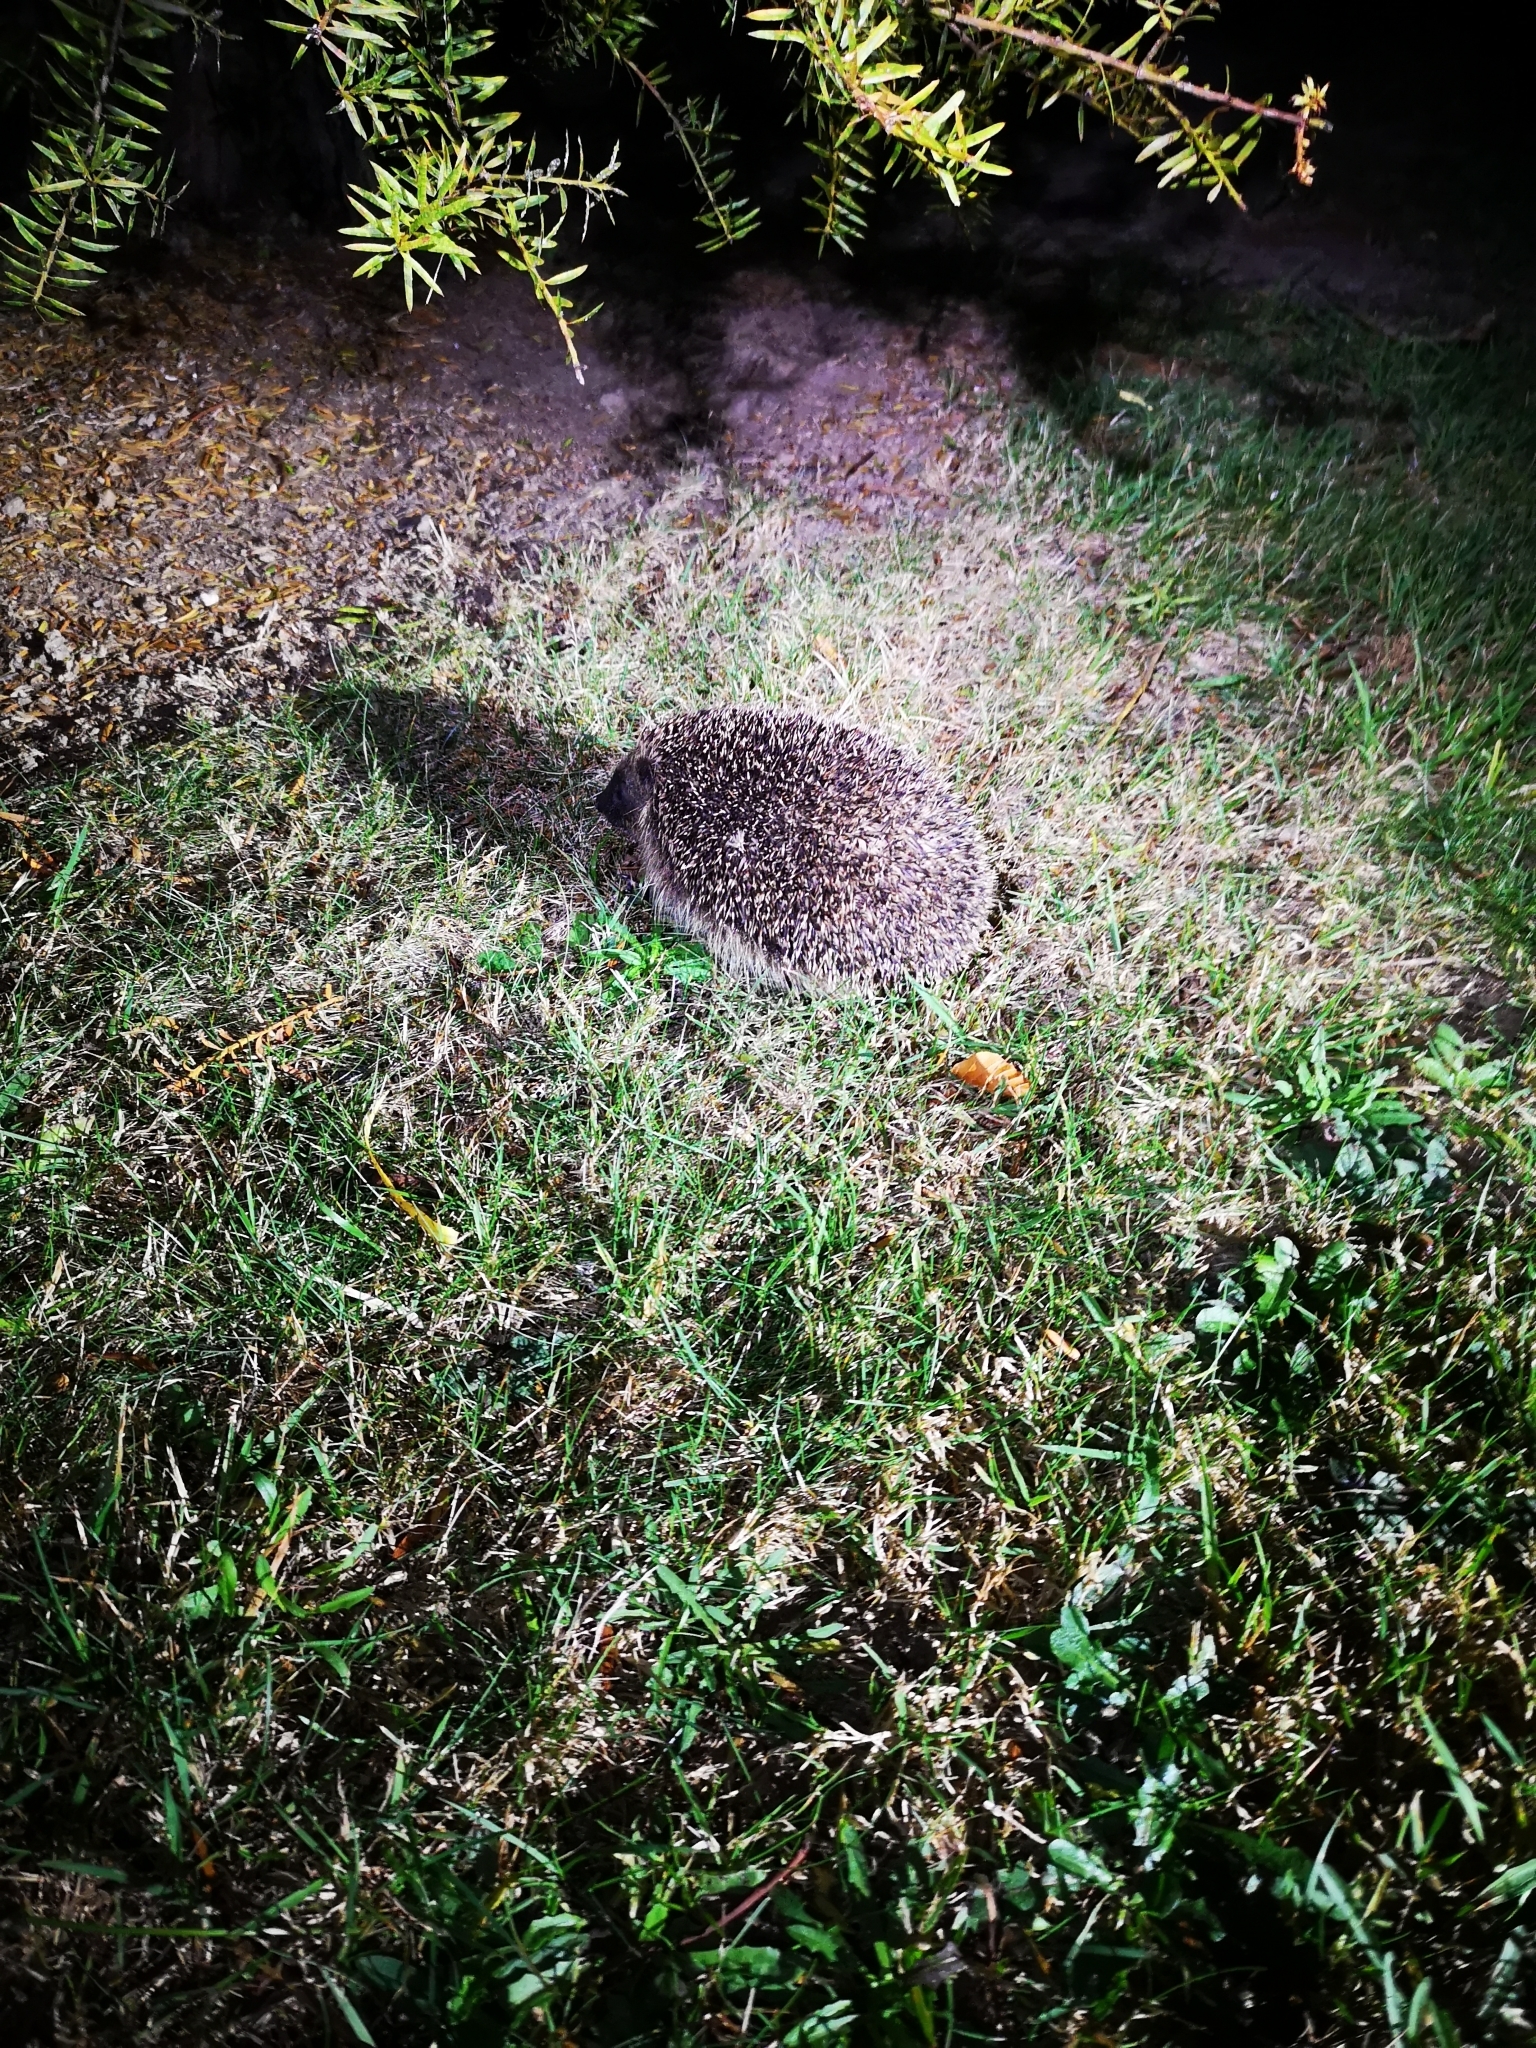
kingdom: Animalia
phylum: Chordata
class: Mammalia
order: Erinaceomorpha
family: Erinaceidae
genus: Erinaceus
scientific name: Erinaceus europaeus
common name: West european hedgehog
